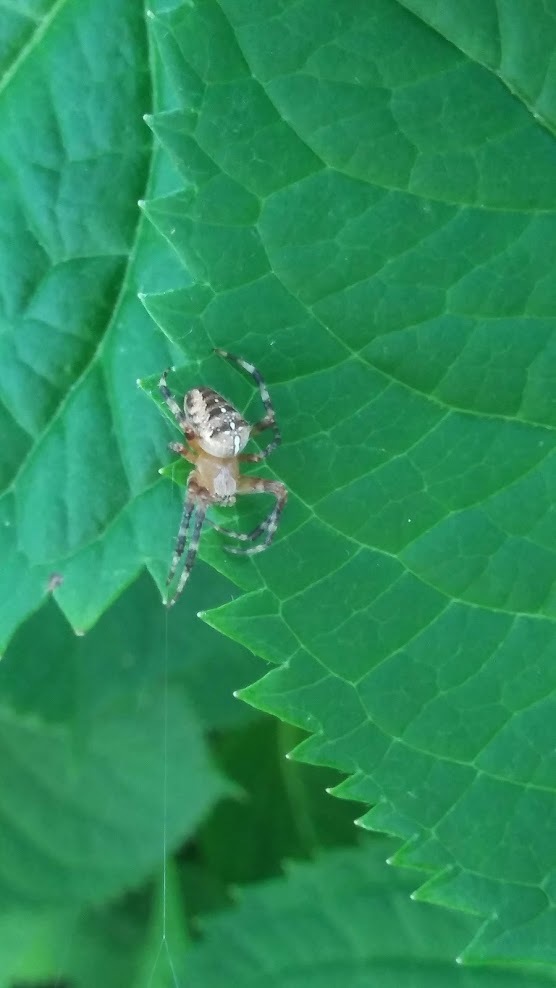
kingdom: Animalia
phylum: Arthropoda
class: Arachnida
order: Araneae
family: Araneidae
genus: Araneus
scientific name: Araneus diadematus
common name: Cross orbweaver
